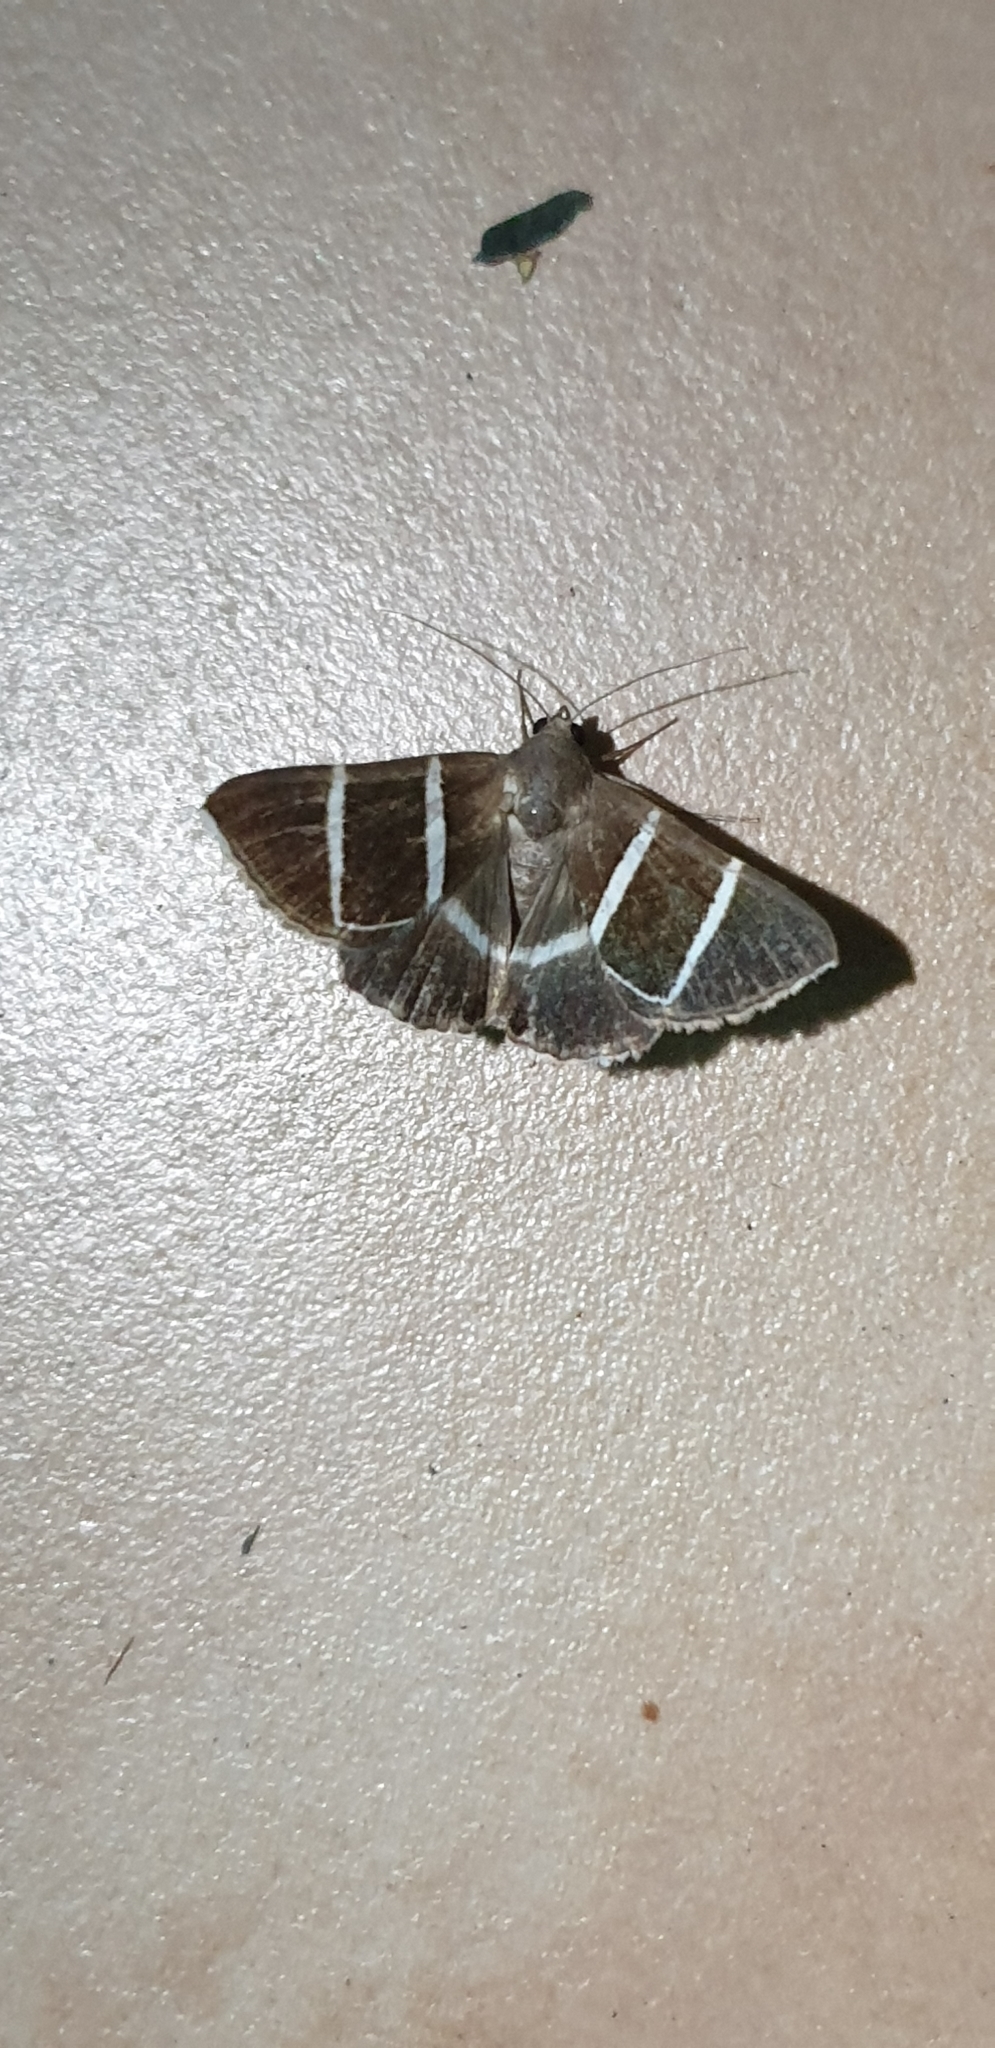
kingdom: Animalia
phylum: Arthropoda
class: Insecta
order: Lepidoptera
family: Erebidae
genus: Grammodes
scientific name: Grammodes justa
